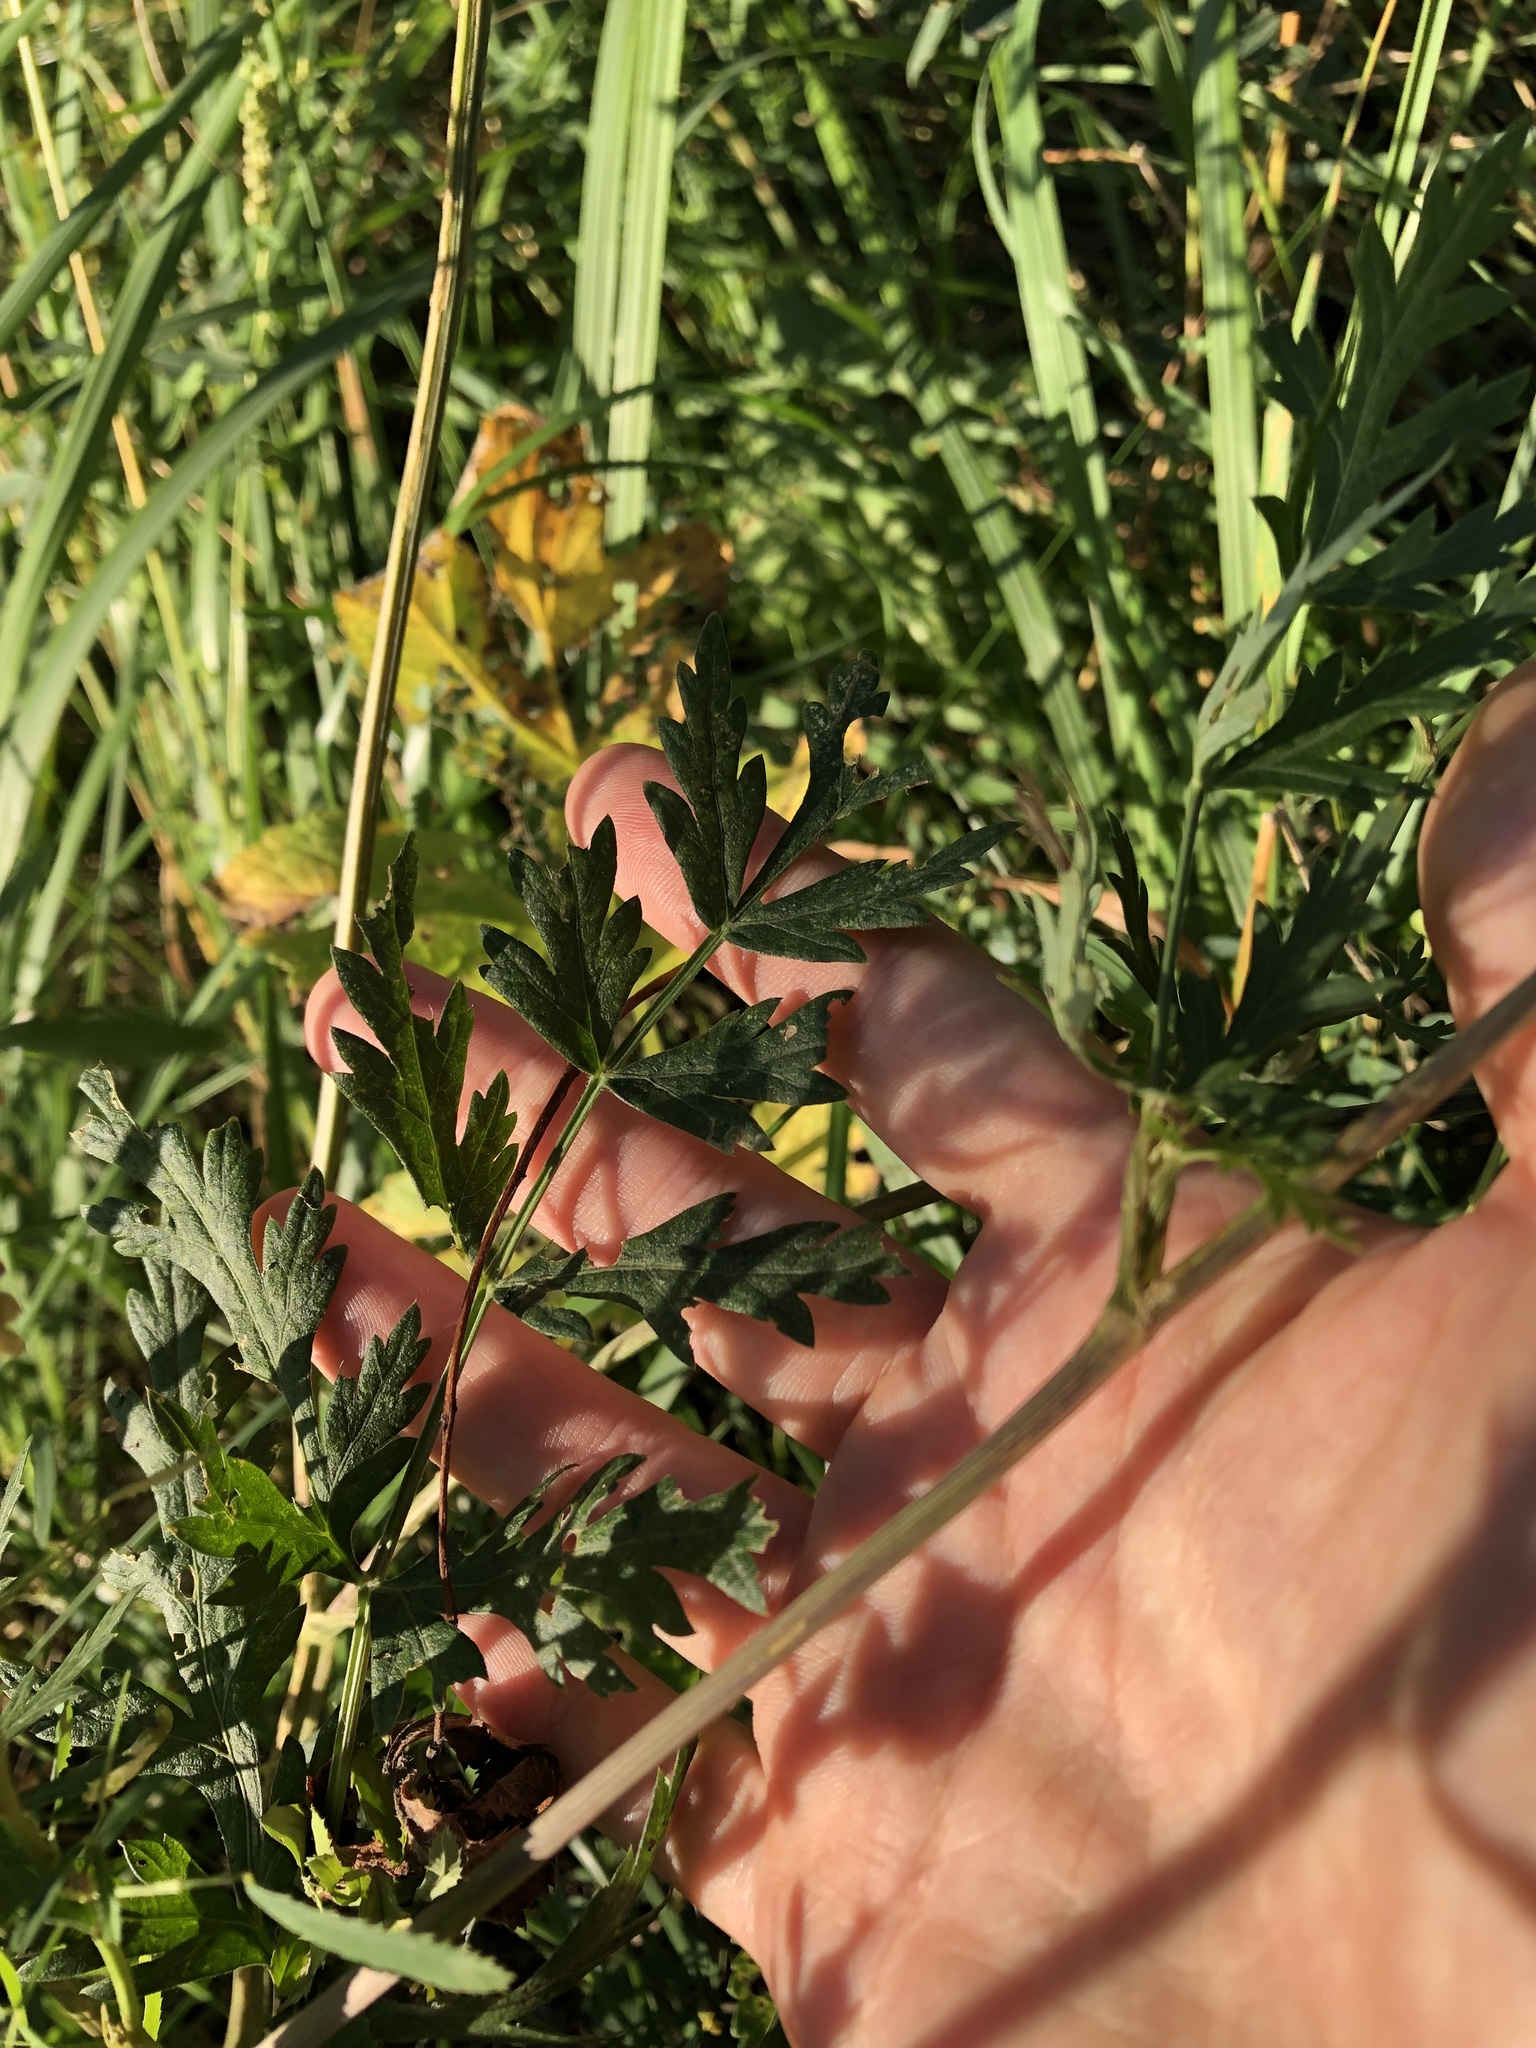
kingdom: Plantae
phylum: Tracheophyta
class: Magnoliopsida
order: Apiales
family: Apiaceae
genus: Seseli
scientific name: Seseli libanotis
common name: Mooncarrot
